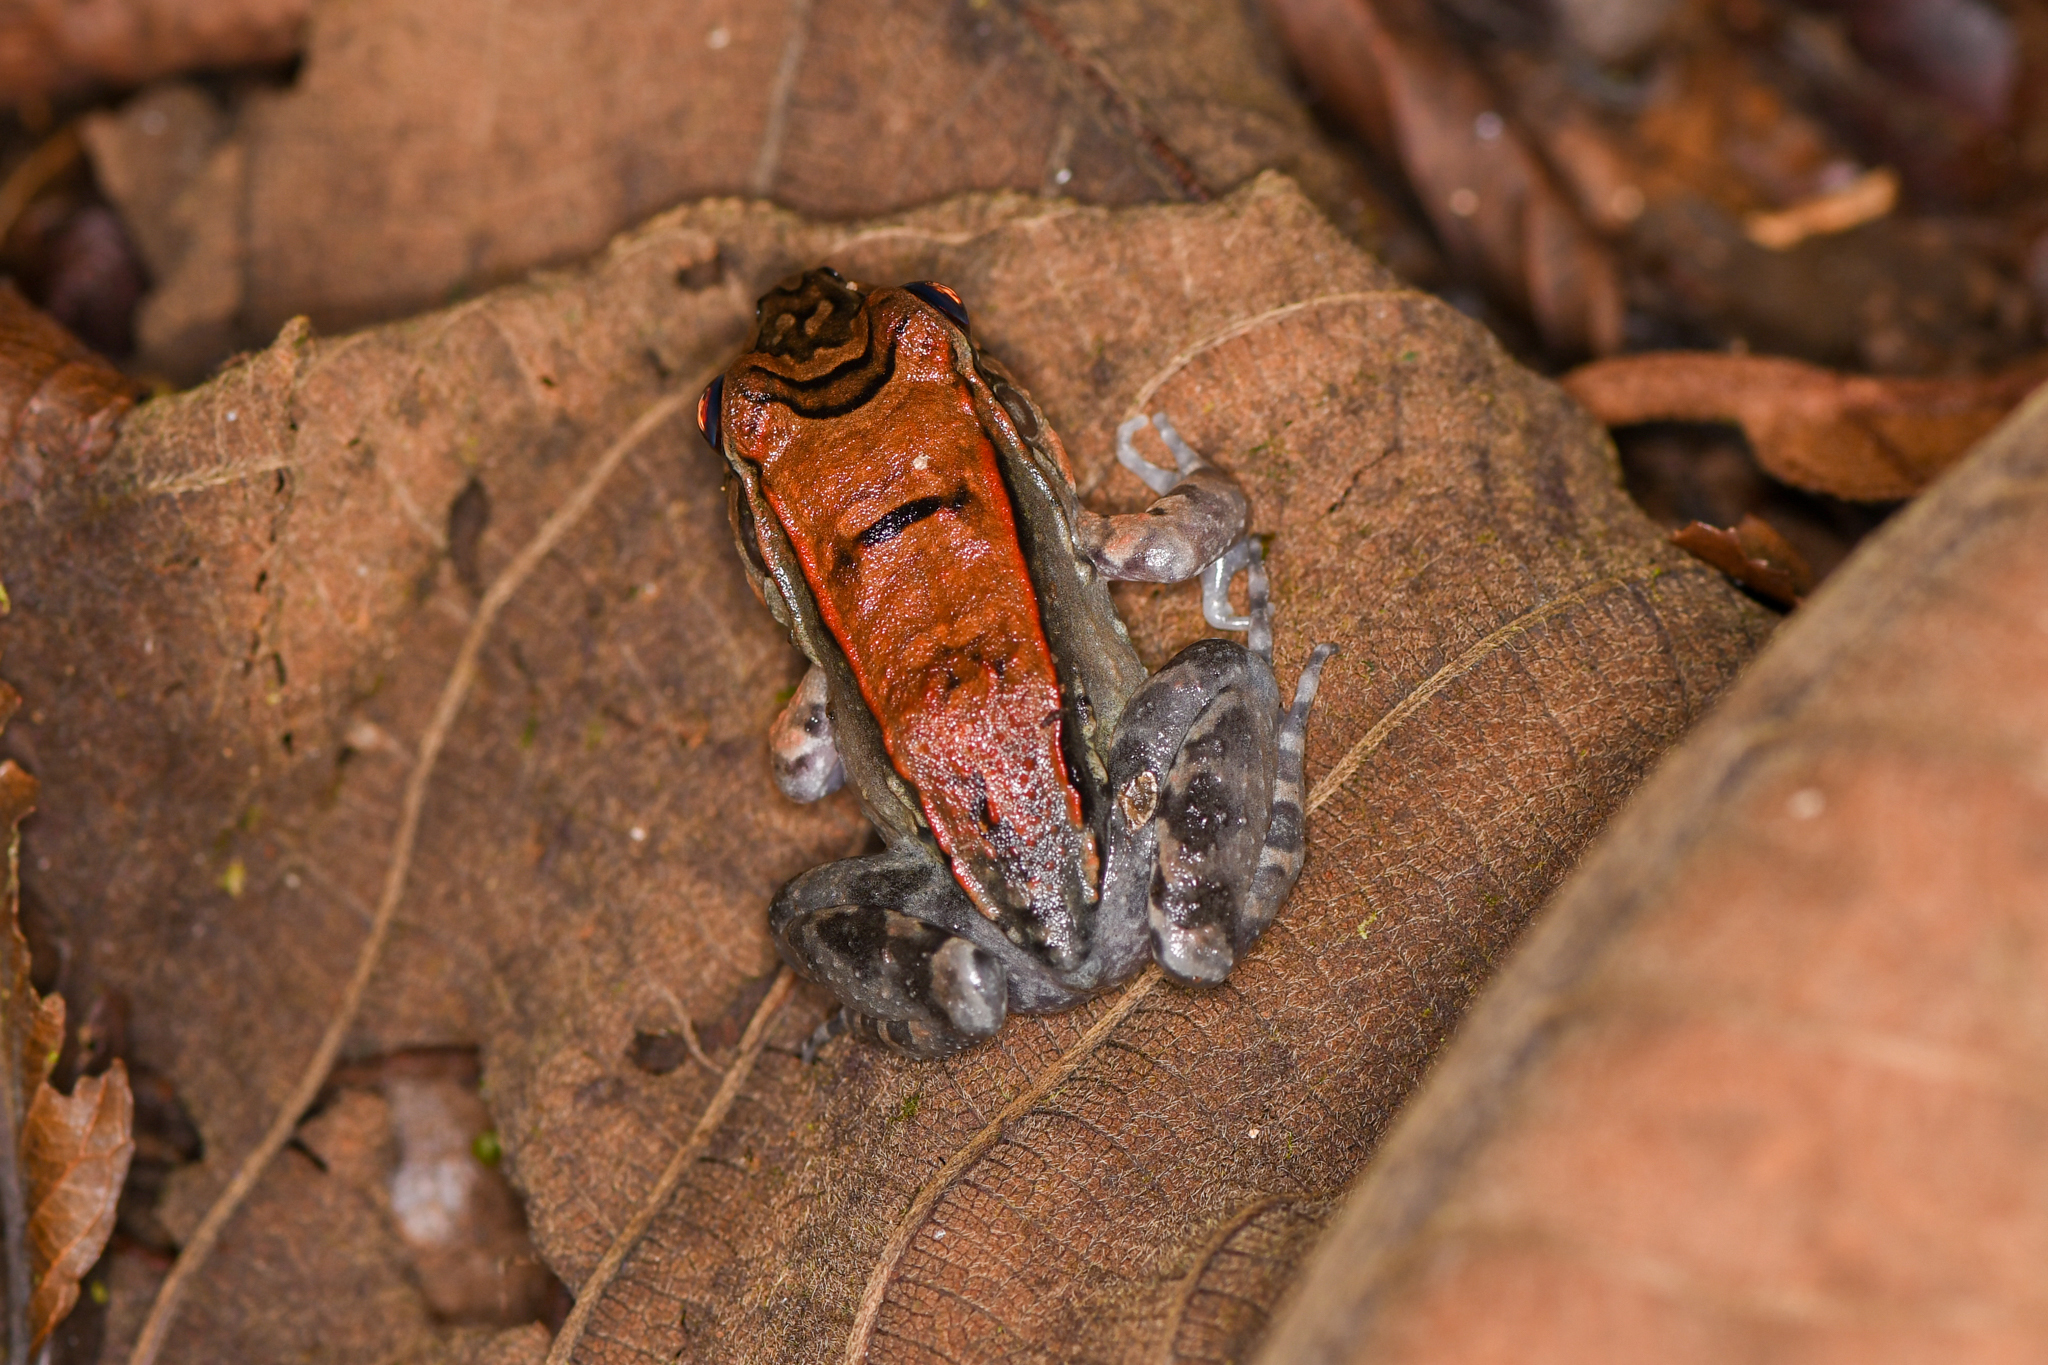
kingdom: Animalia
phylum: Chordata
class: Amphibia
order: Anura
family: Leptodactylidae
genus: Leptodactylus
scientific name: Leptodactylus savagei
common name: Savage's thin-toed frog
